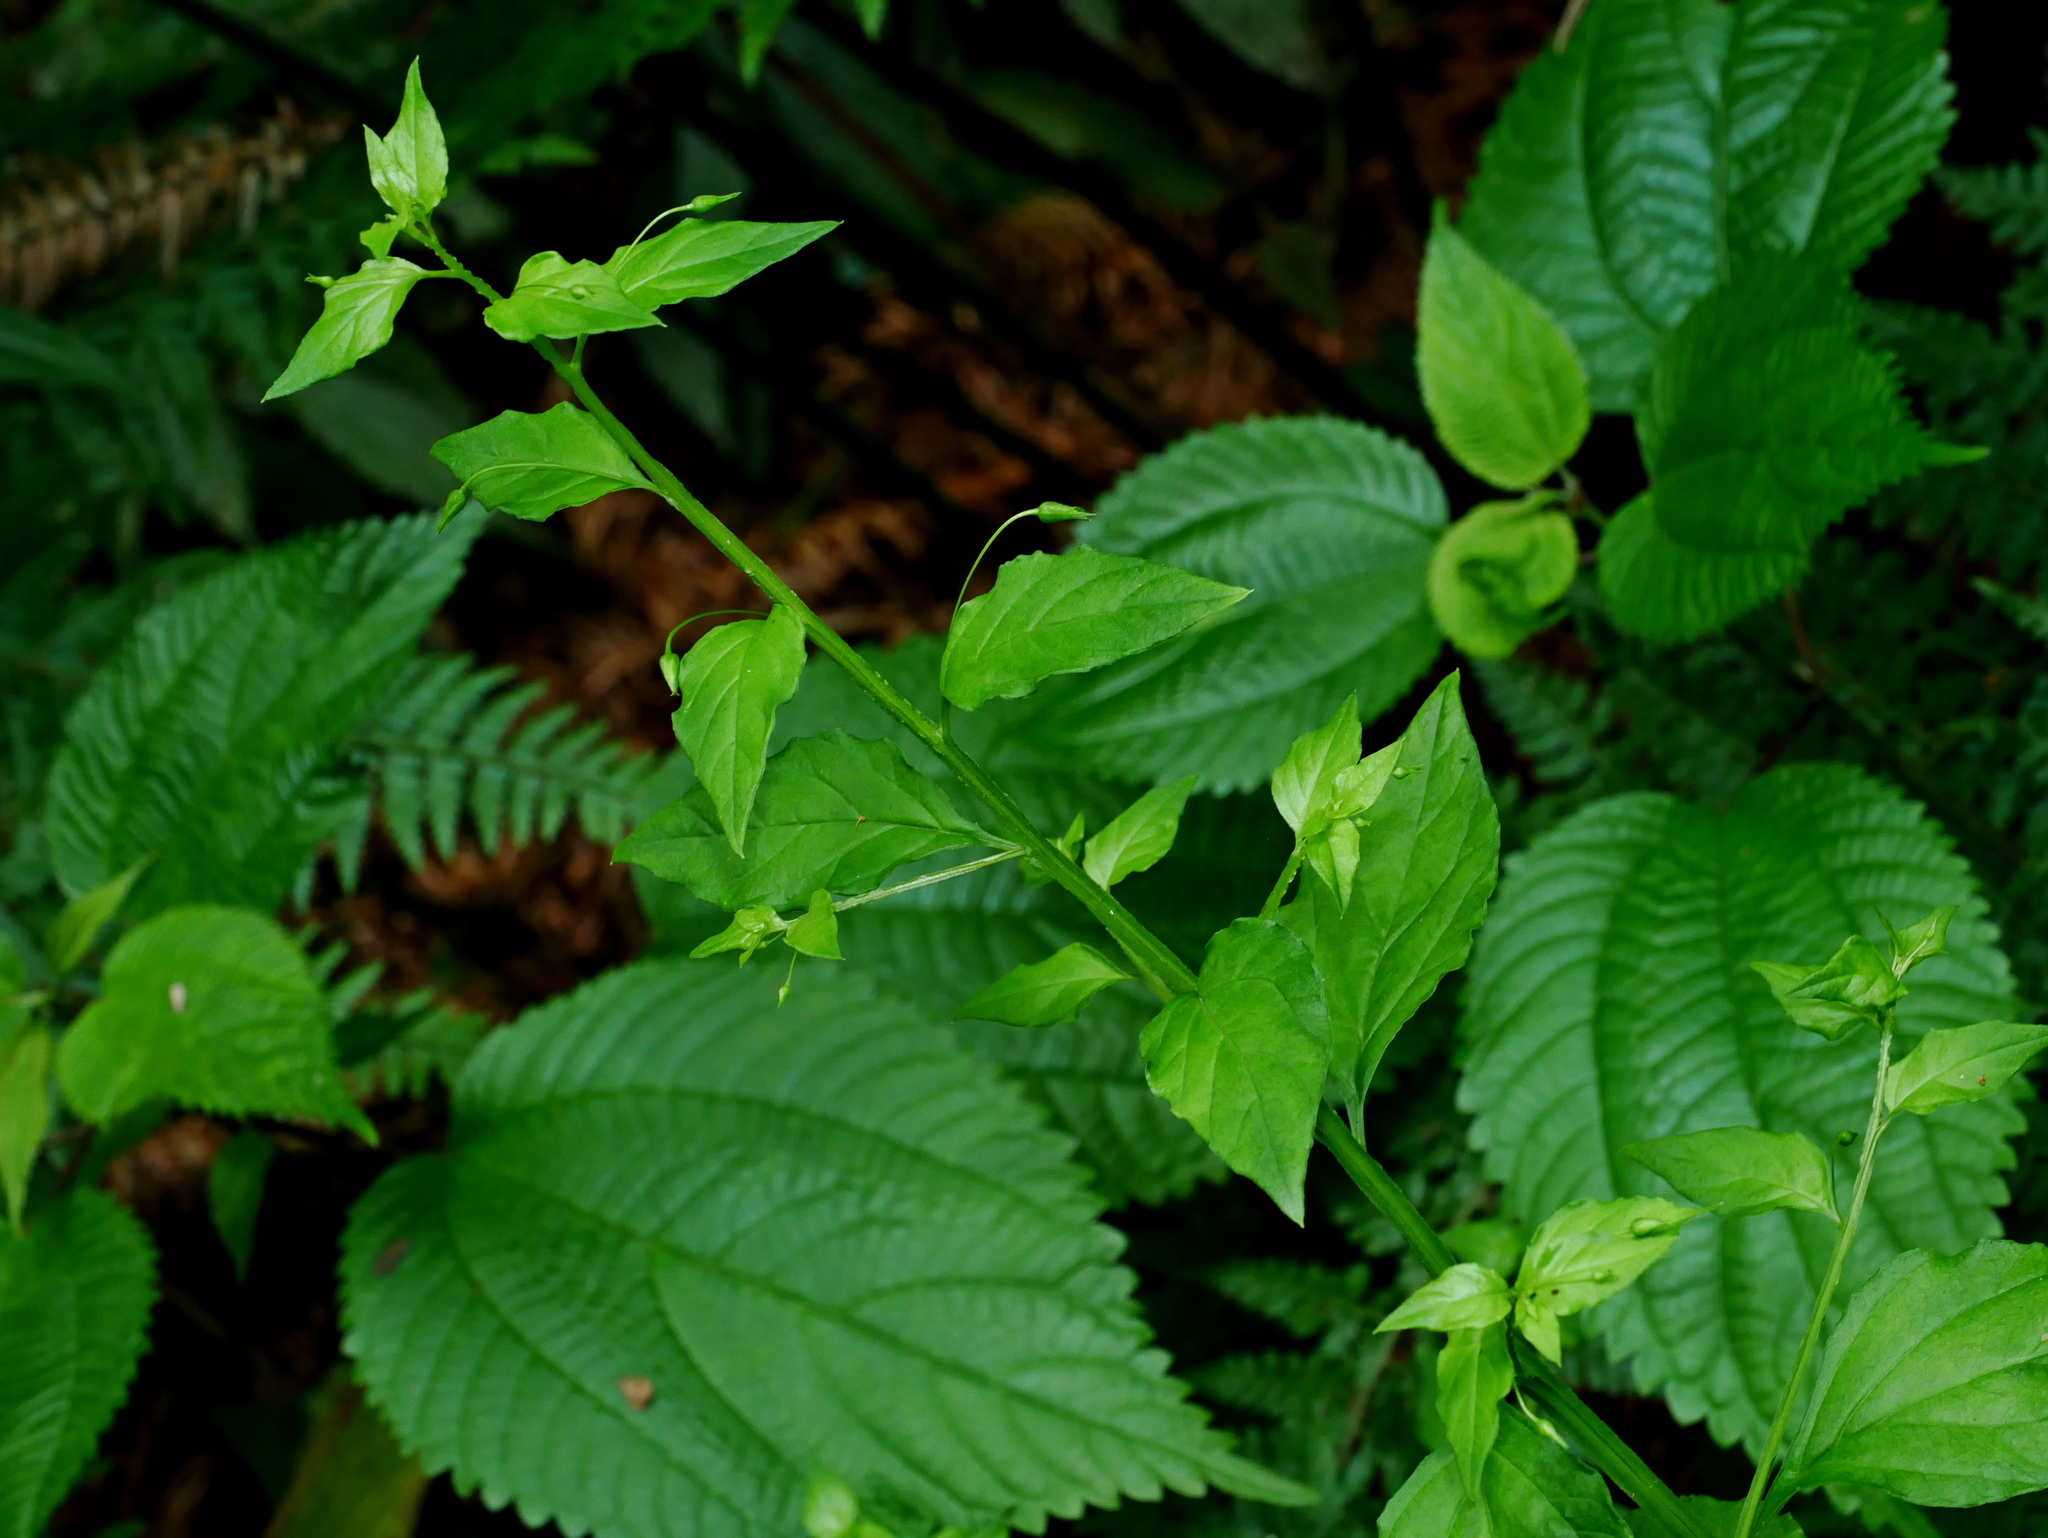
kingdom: Plantae
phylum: Tracheophyta
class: Magnoliopsida
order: Ericales
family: Primulaceae
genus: Lysimachia
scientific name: Lysimachia capillipes
